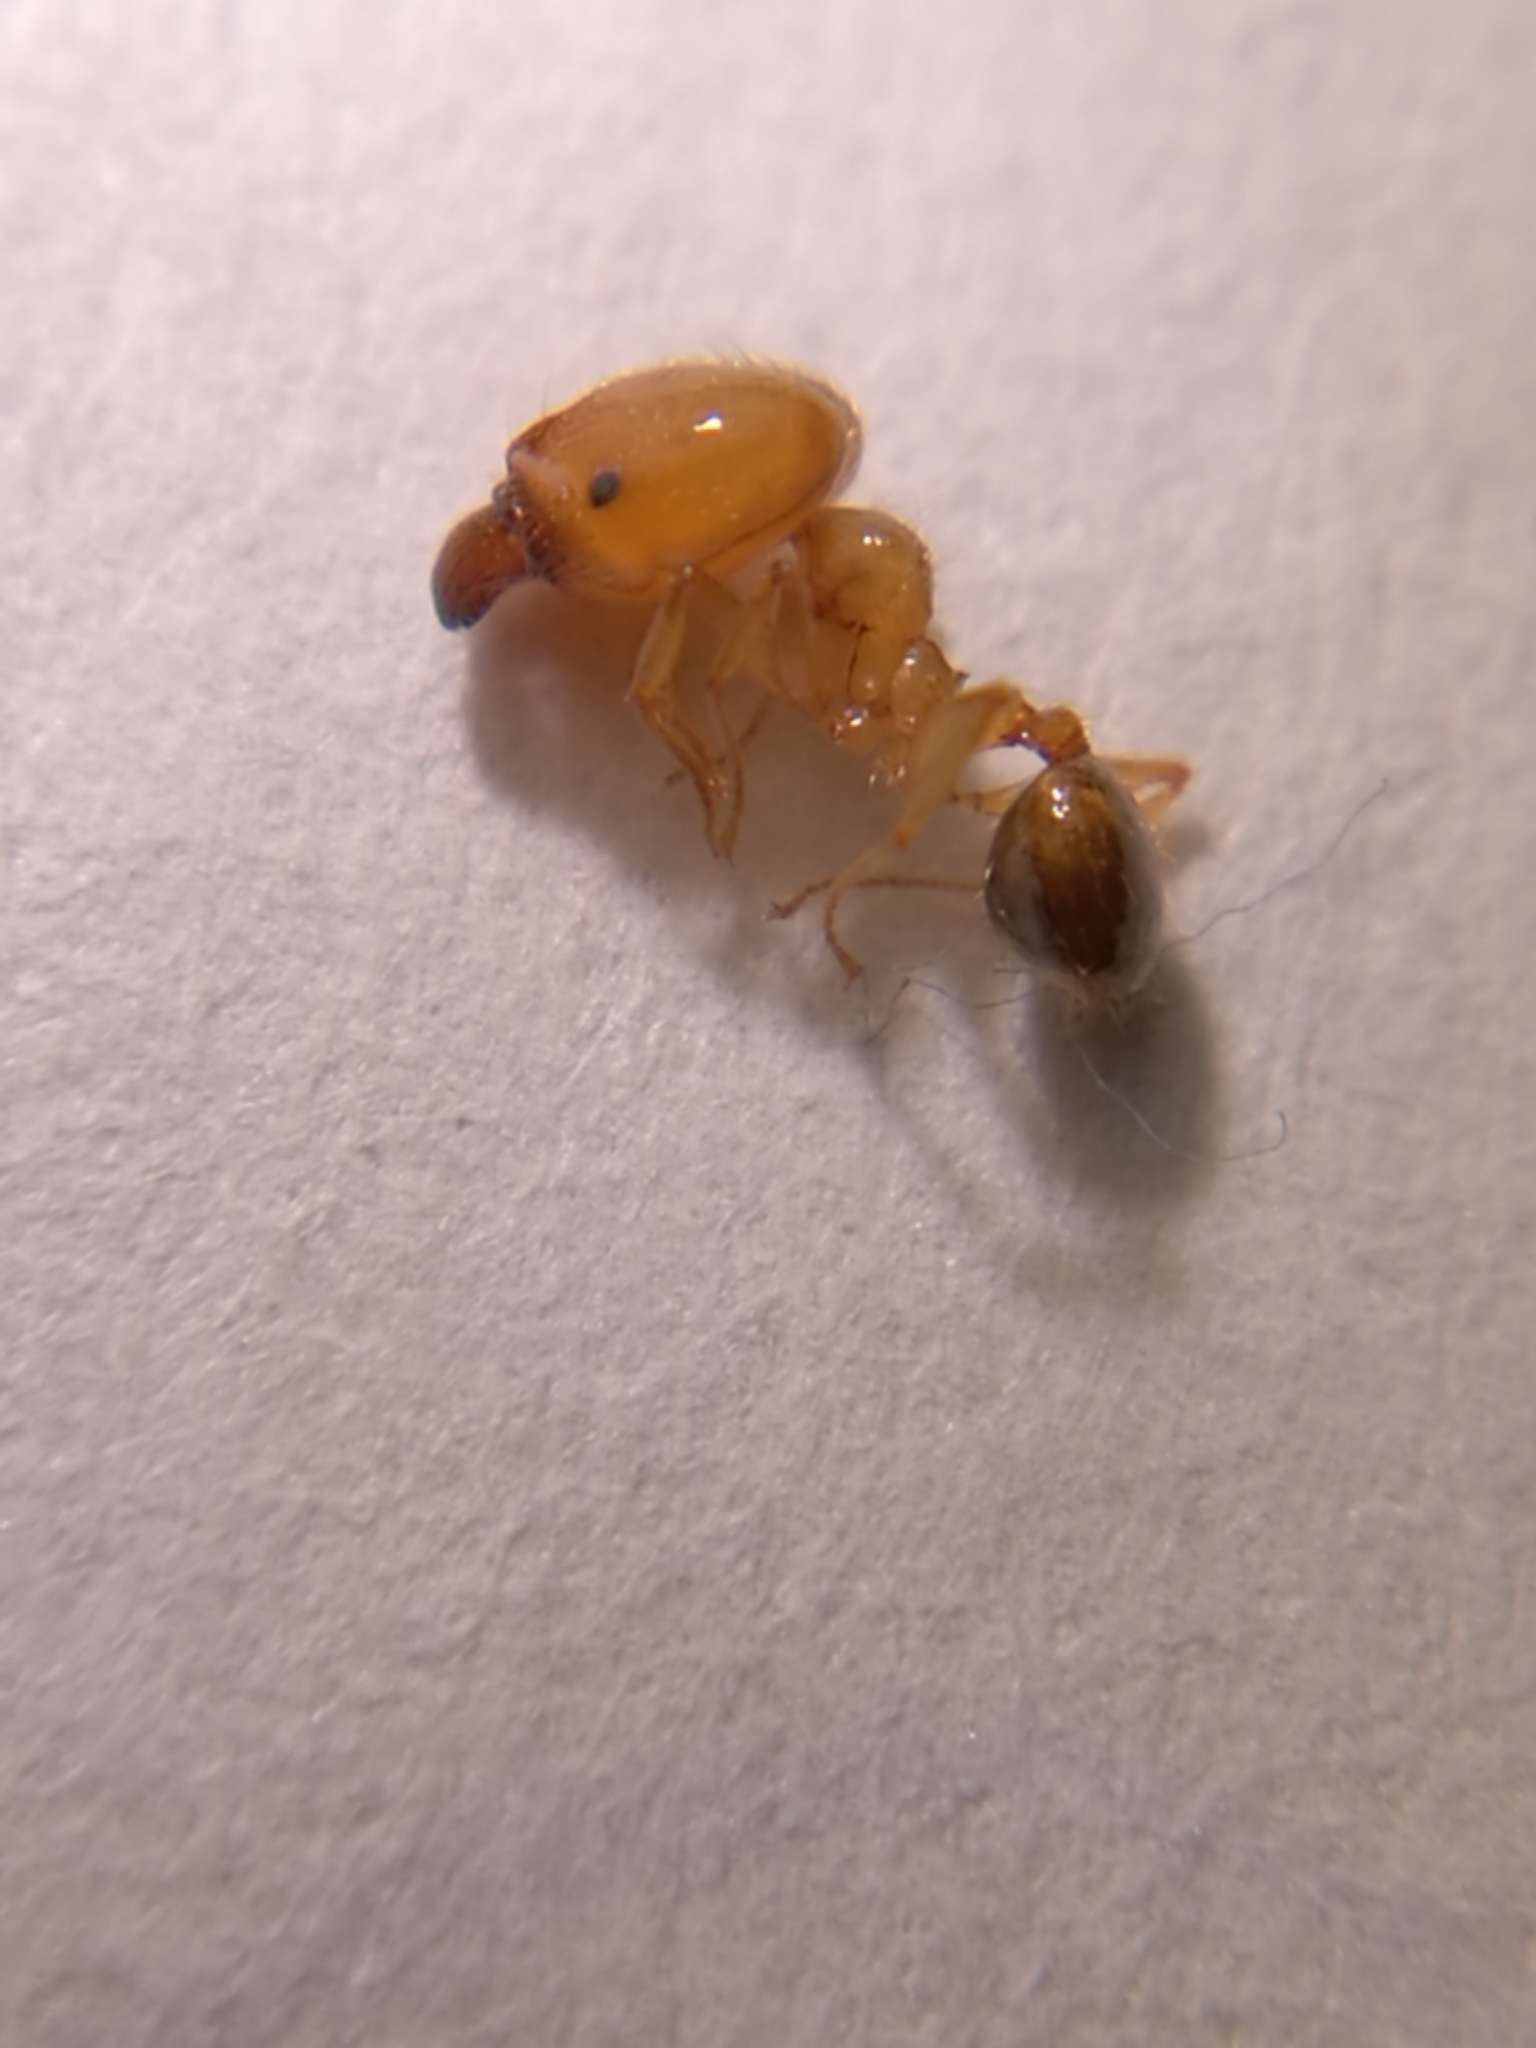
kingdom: Animalia
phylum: Arthropoda
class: Insecta
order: Hymenoptera
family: Formicidae
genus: Pheidole
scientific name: Pheidole pallidula
